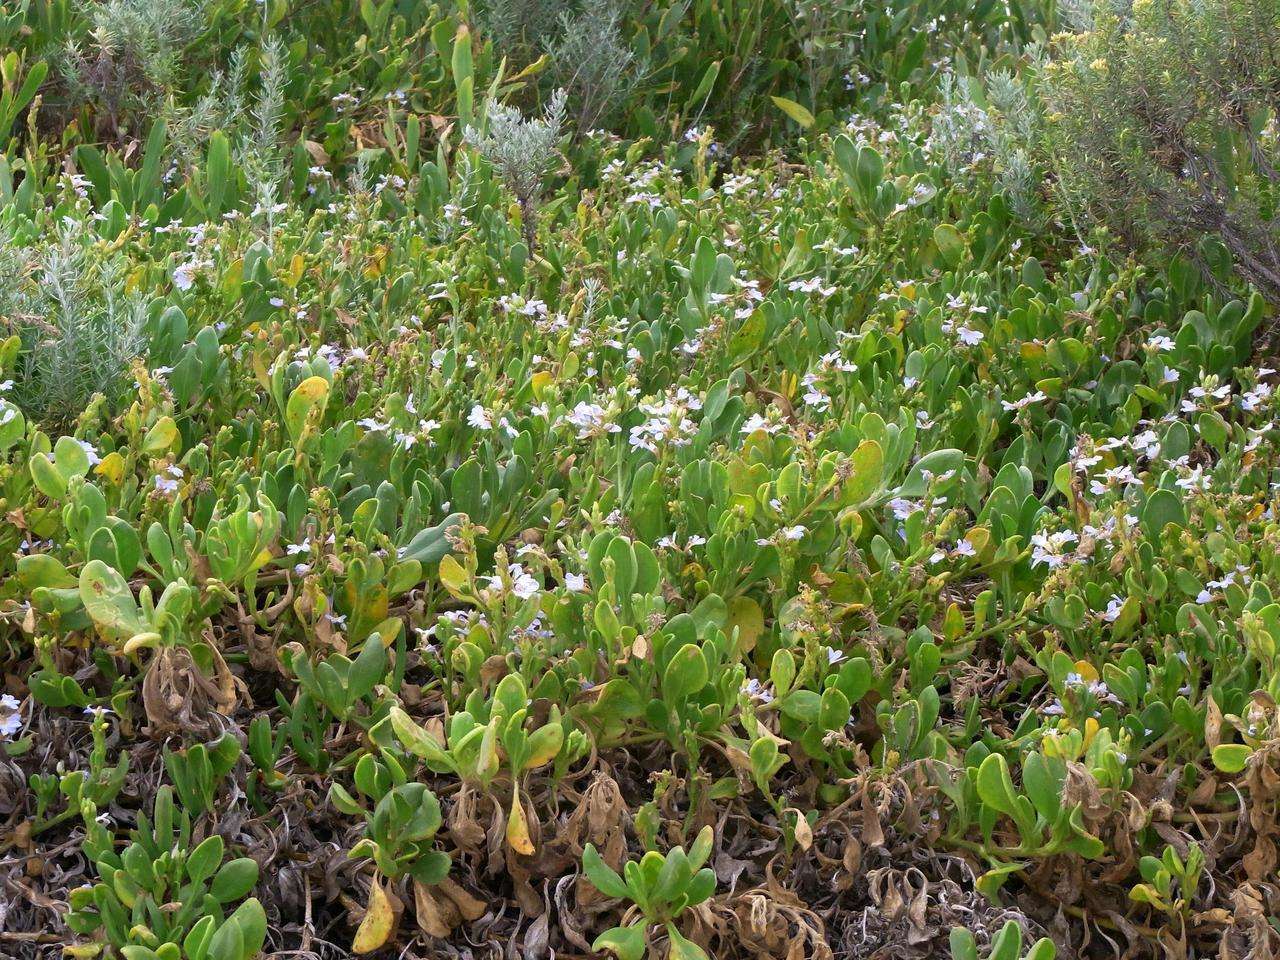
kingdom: Plantae
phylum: Tracheophyta
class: Magnoliopsida
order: Asterales
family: Goodeniaceae
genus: Scaevola
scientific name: Scaevola calendulacea
